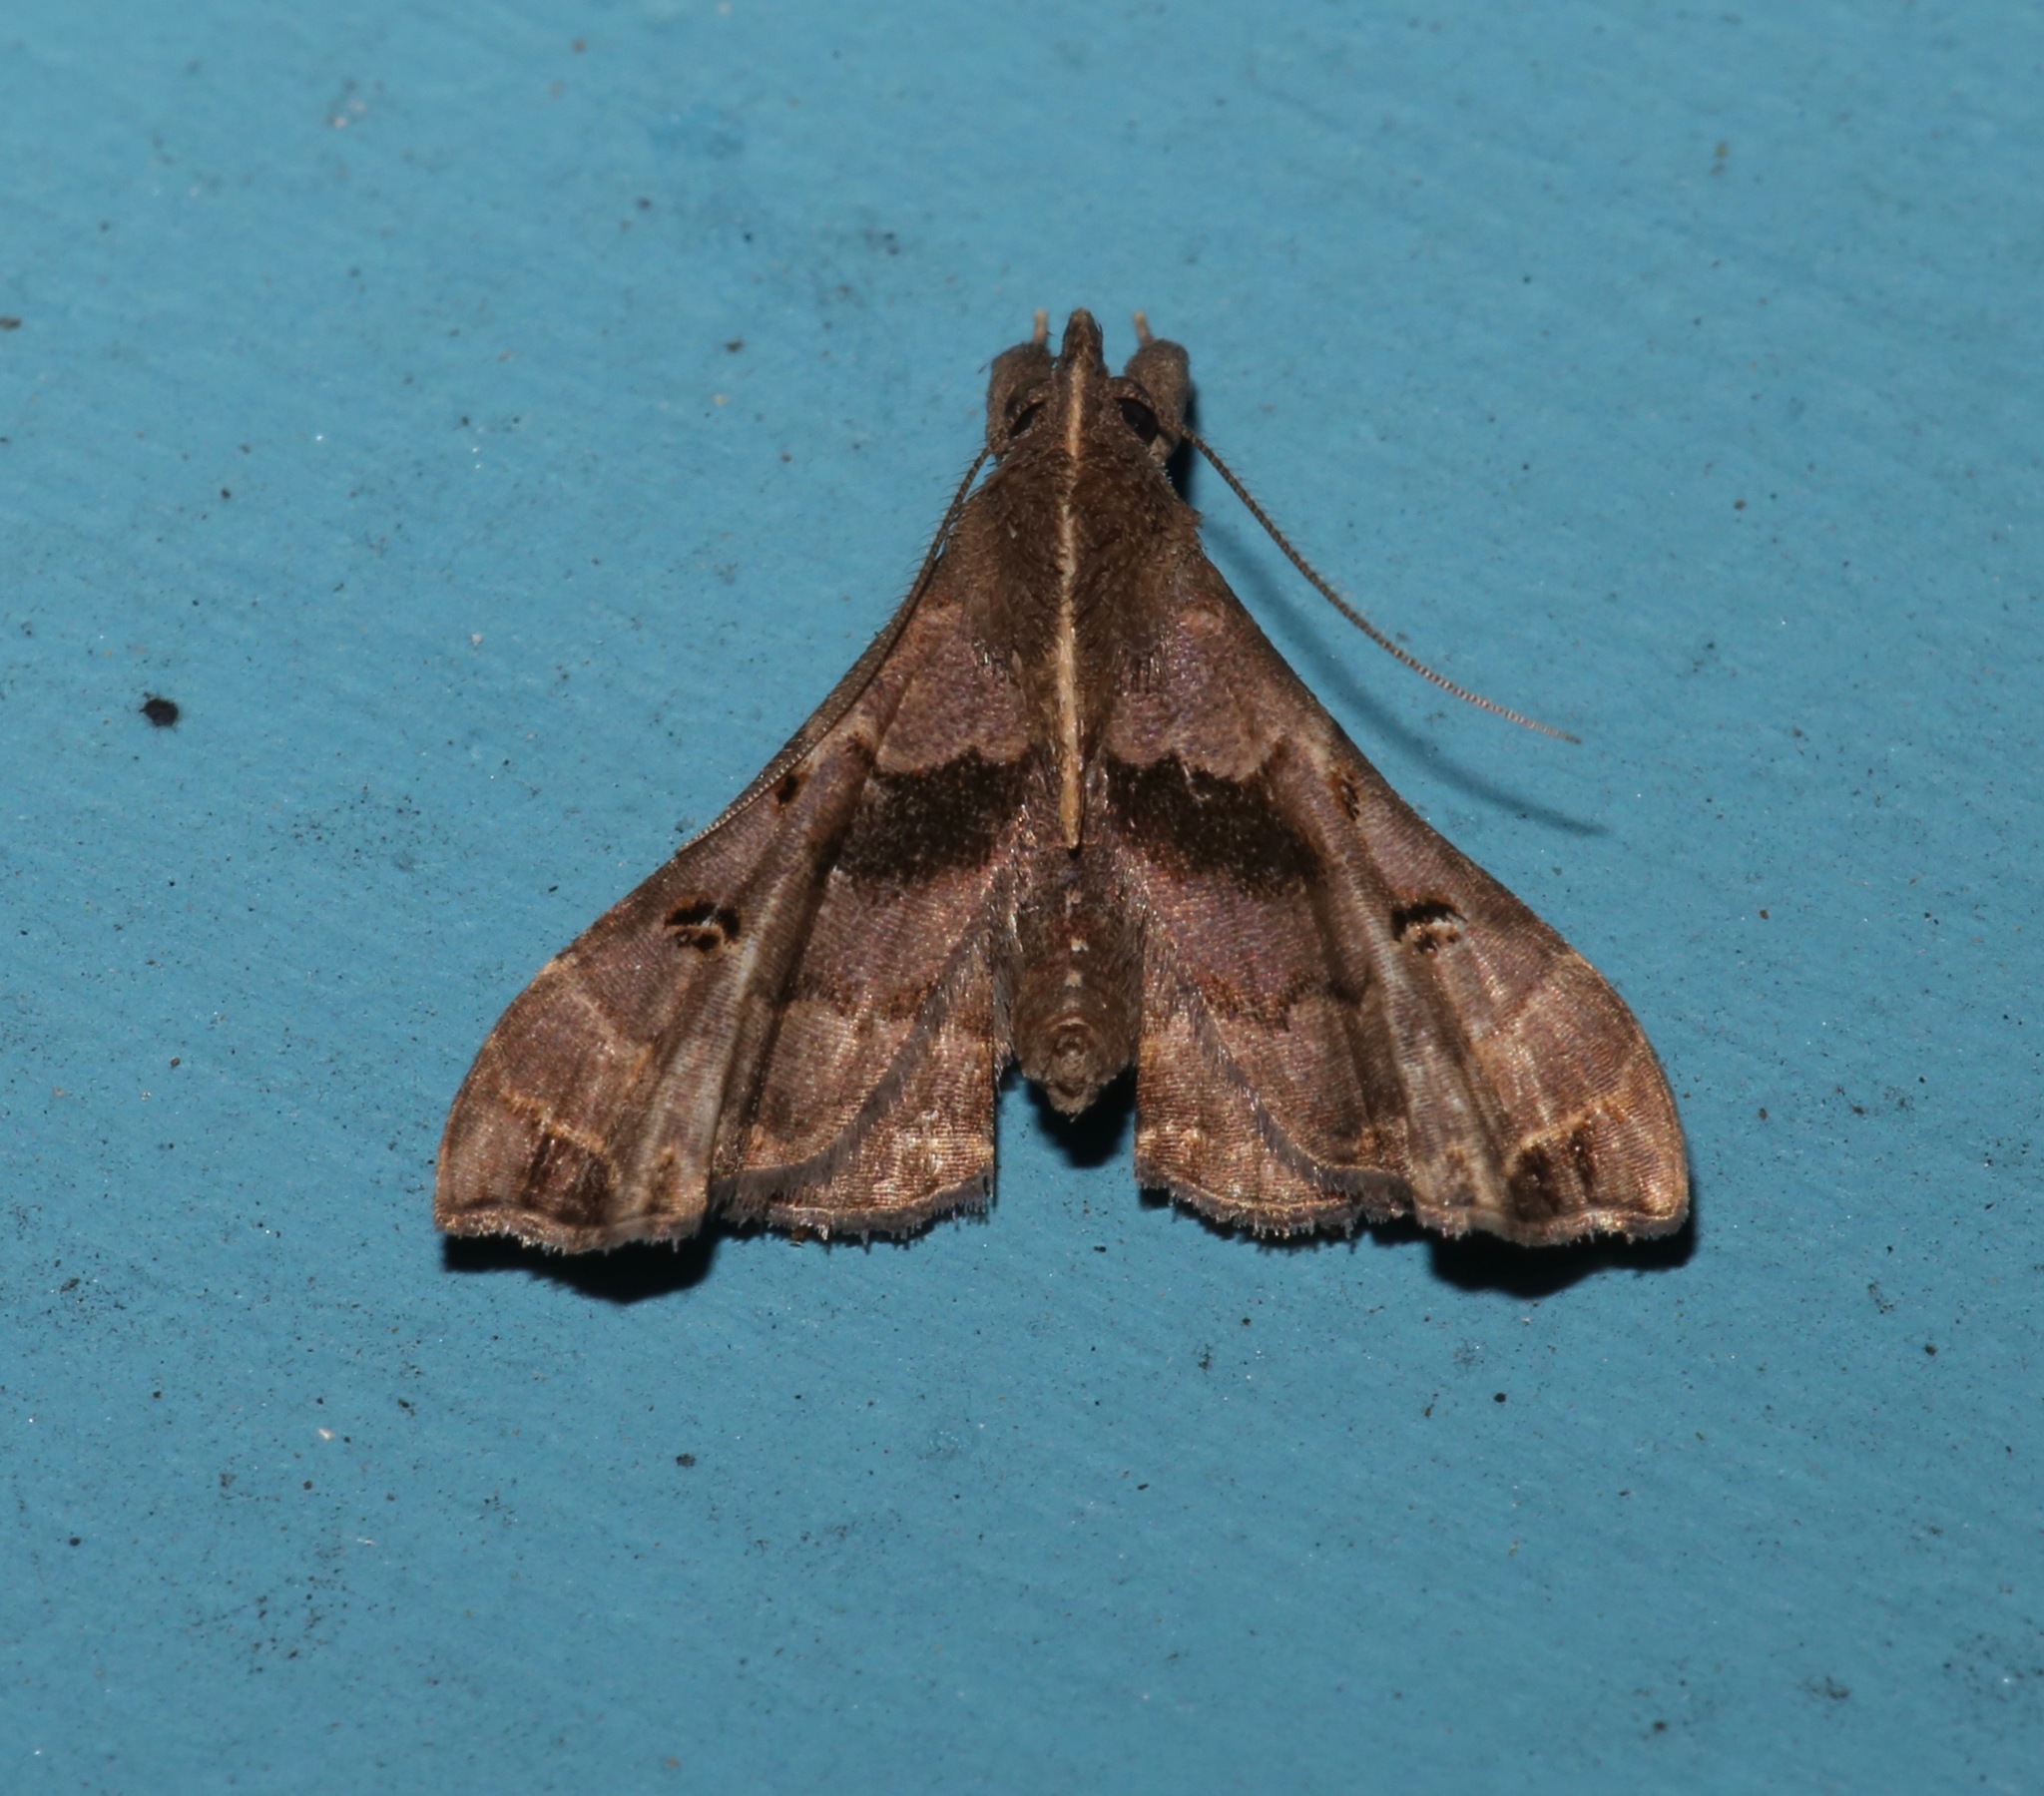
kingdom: Animalia
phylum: Arthropoda
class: Insecta
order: Lepidoptera
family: Erebidae
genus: Palthis
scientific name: Palthis asopialis
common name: Faint-spotted palthis moth
